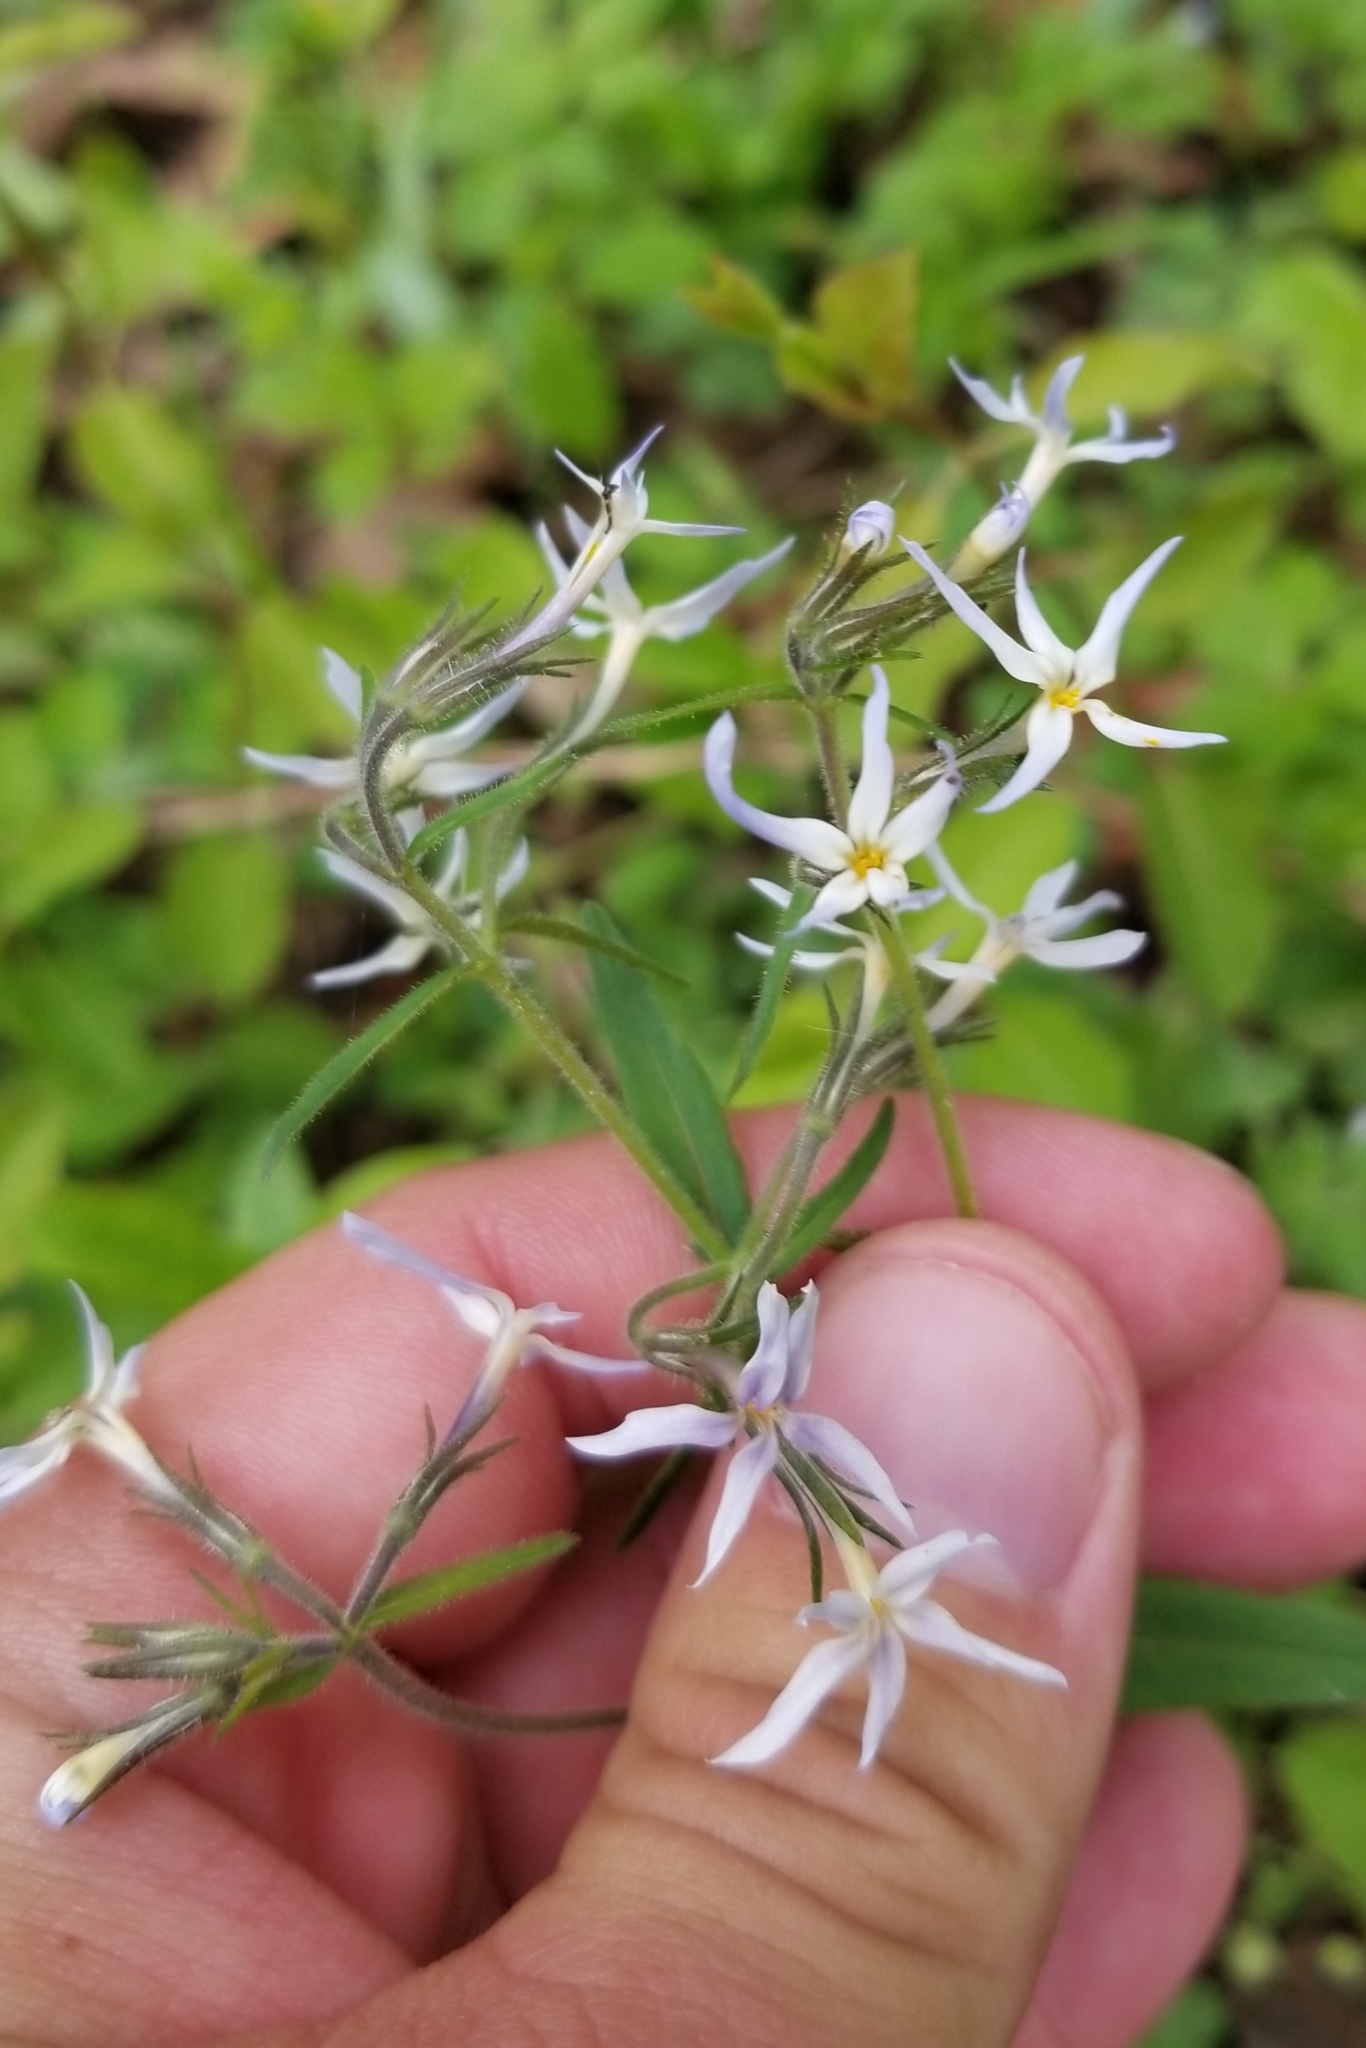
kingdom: Plantae
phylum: Tracheophyta
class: Magnoliopsida
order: Ericales
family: Polemoniaceae
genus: Phlox
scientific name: Phlox divaricata
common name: Blue phlox
